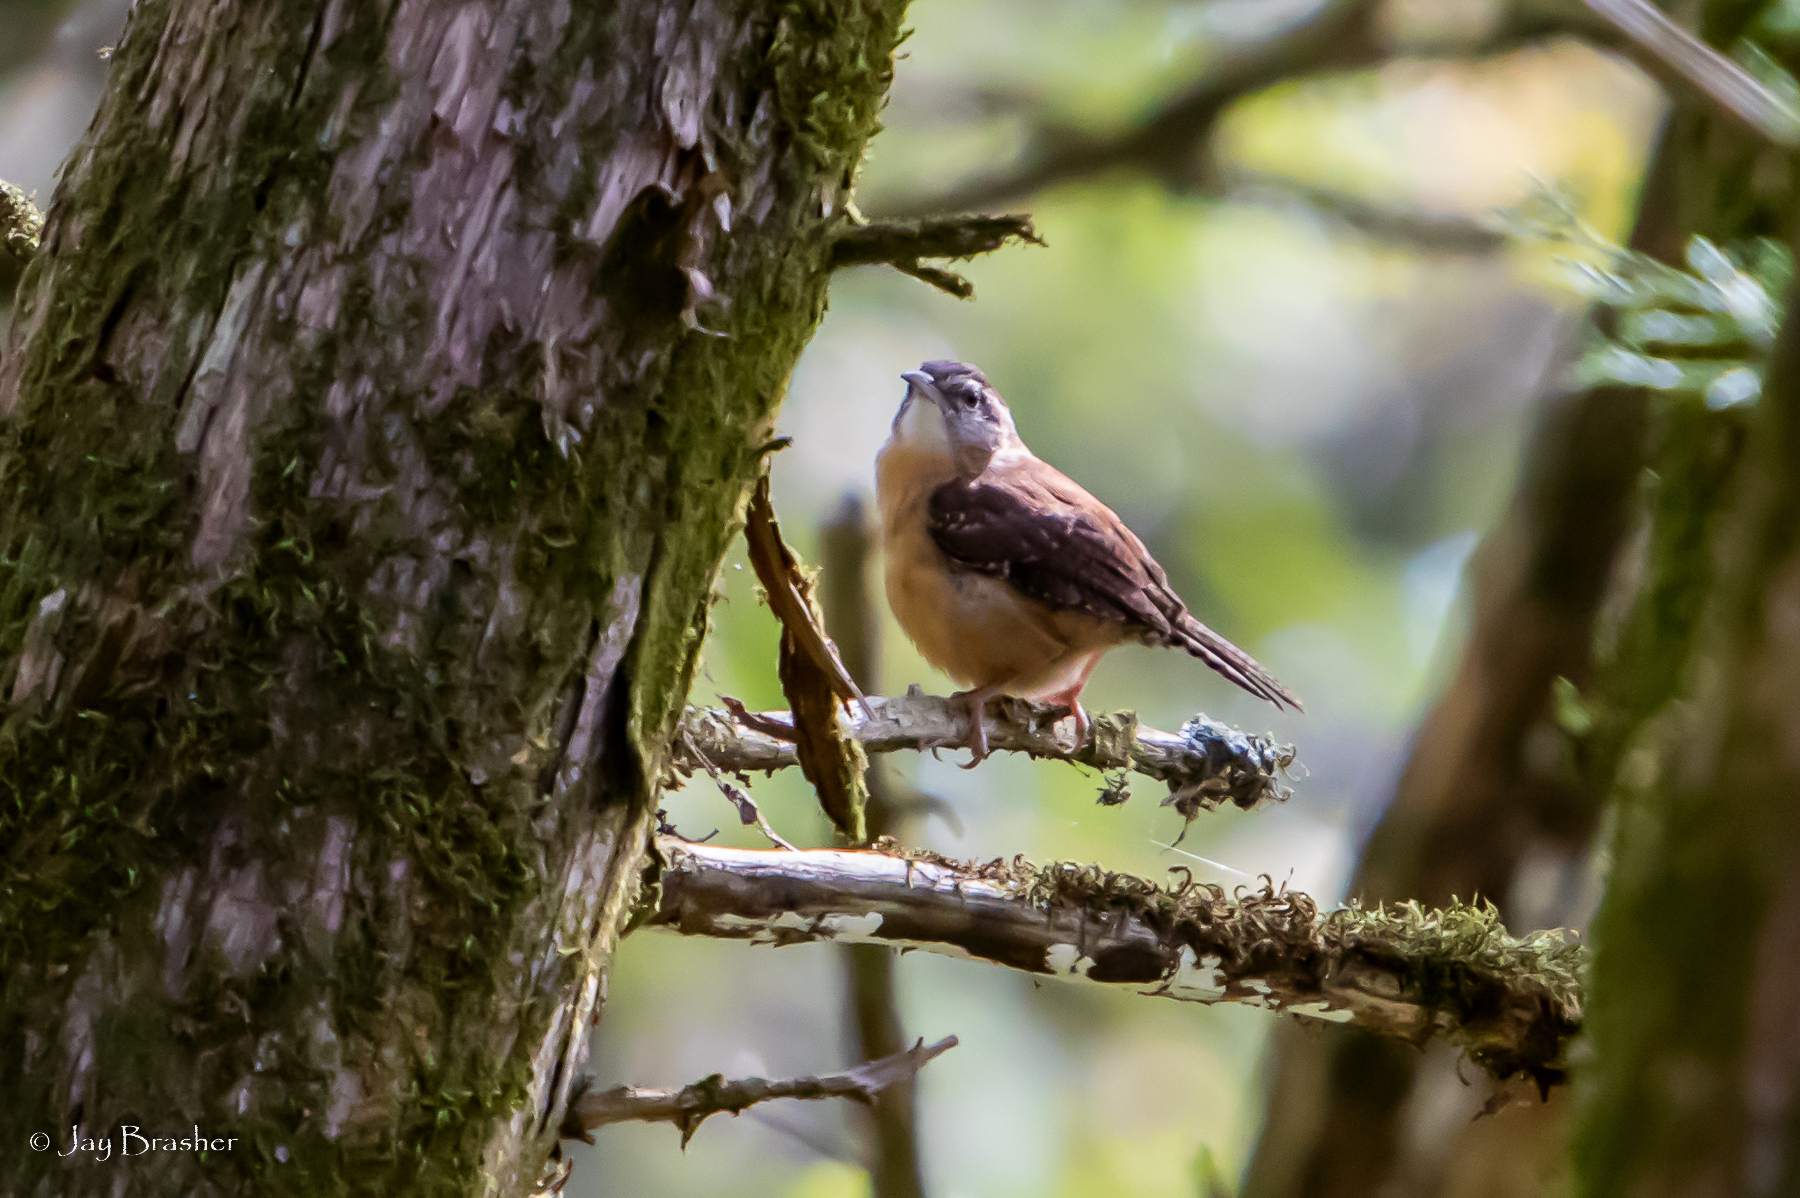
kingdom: Animalia
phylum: Chordata
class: Aves
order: Passeriformes
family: Troglodytidae
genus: Thryothorus
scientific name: Thryothorus ludovicianus
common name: Carolina wren
